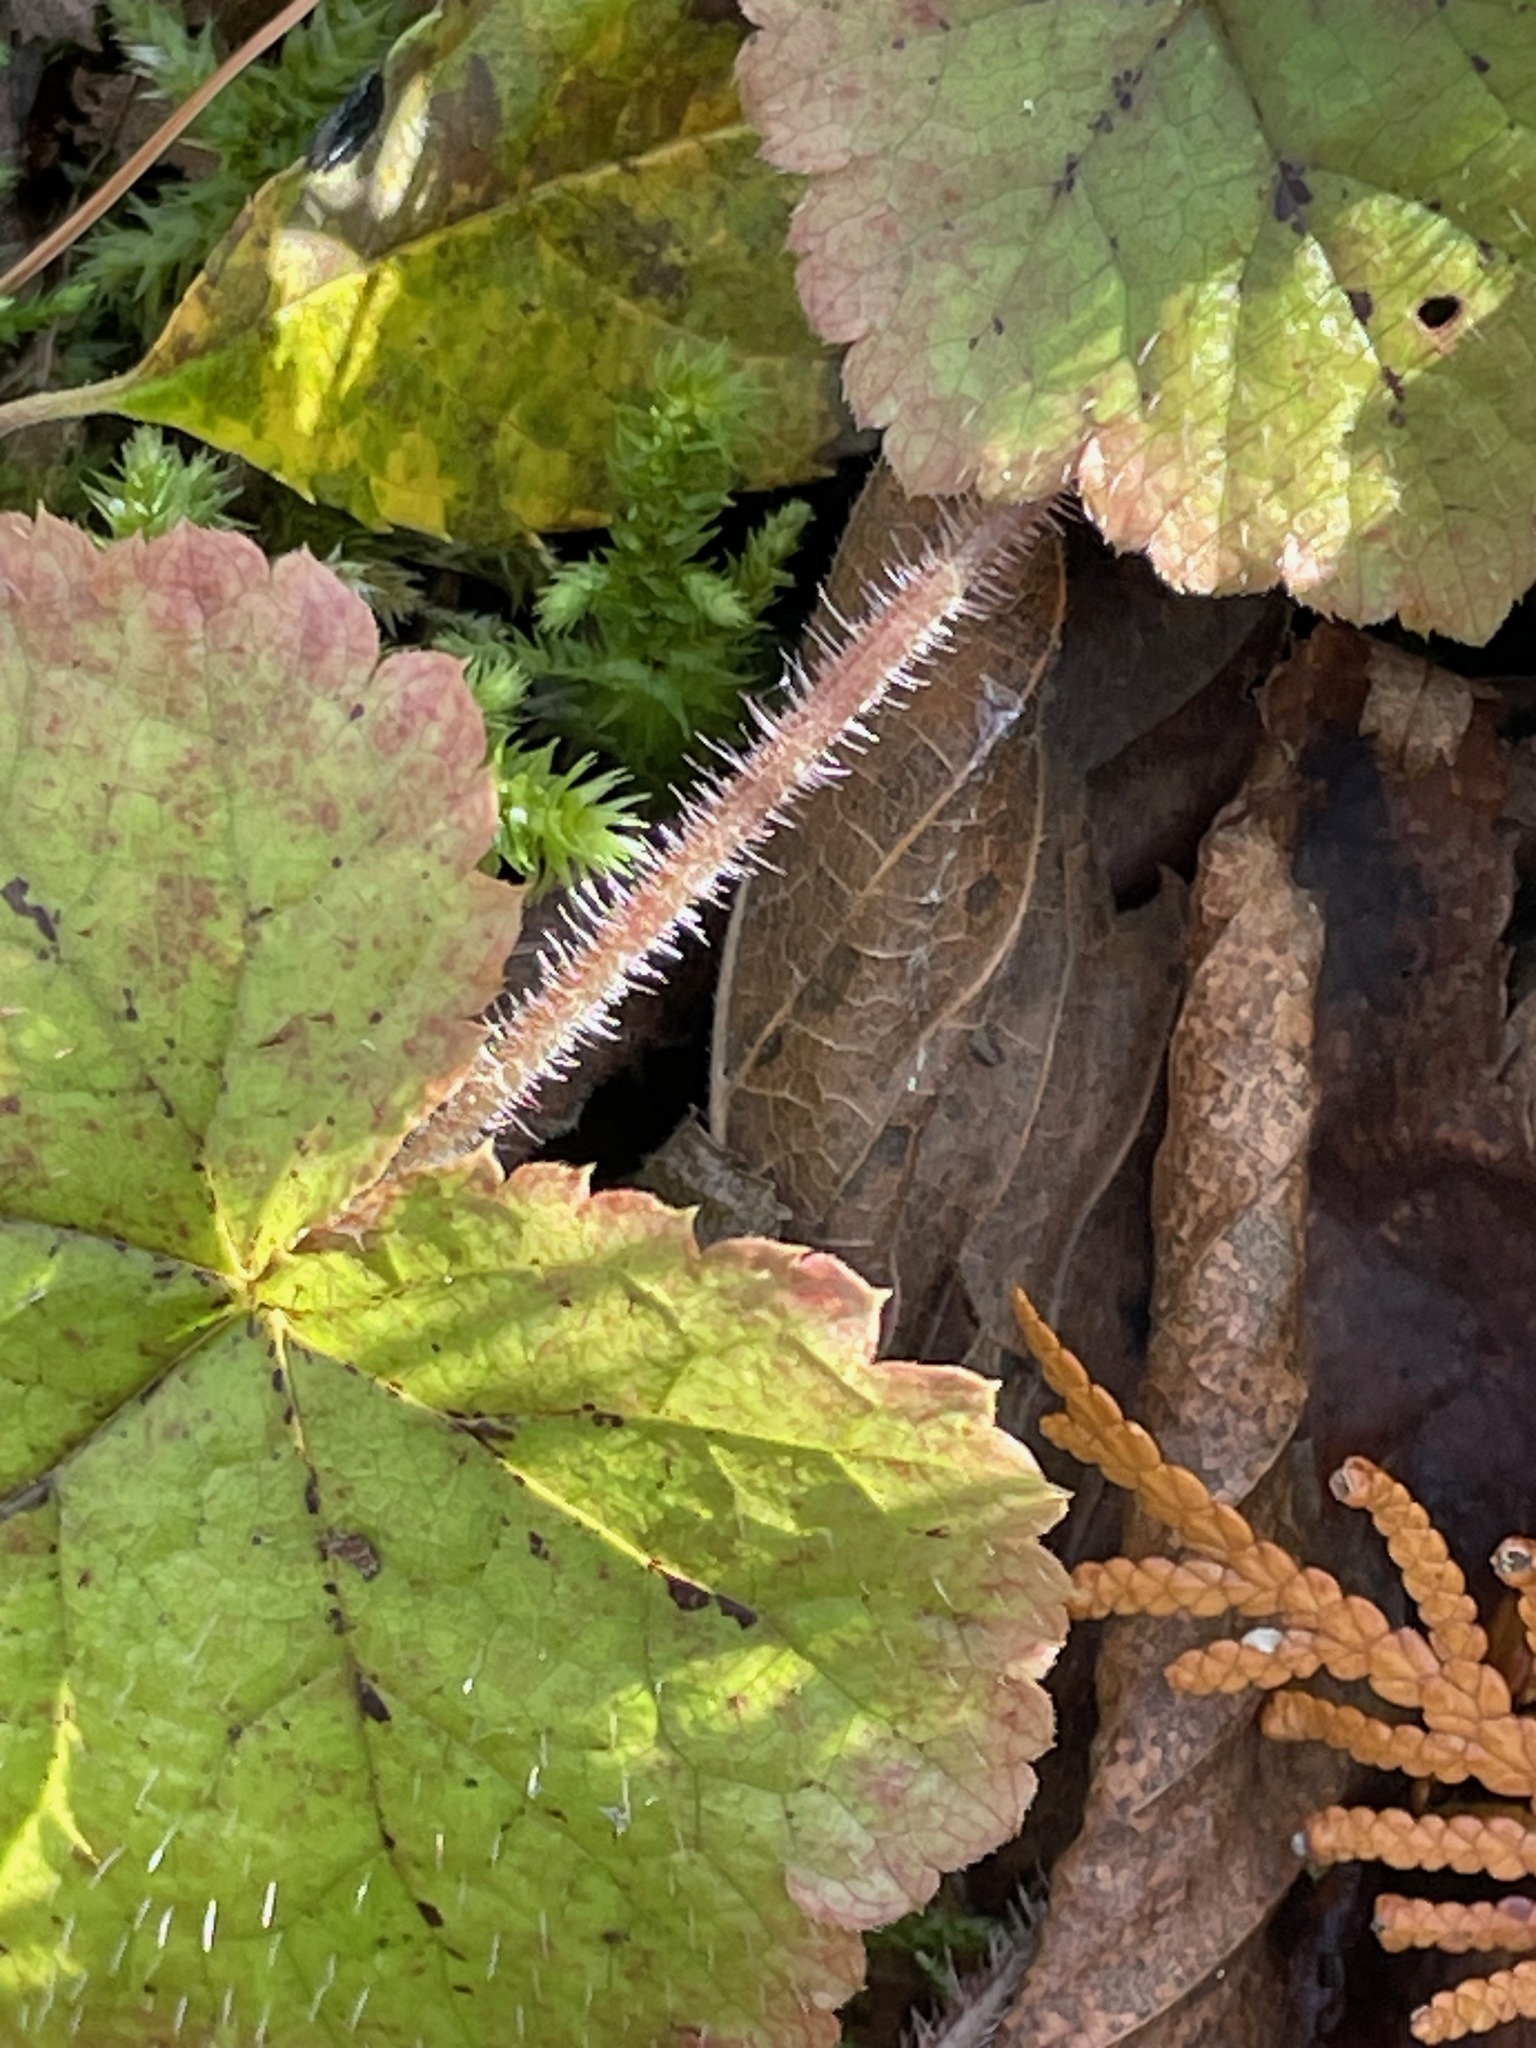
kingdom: Plantae
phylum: Tracheophyta
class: Magnoliopsida
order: Saxifragales
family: Saxifragaceae
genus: Tiarella
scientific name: Tiarella stolonifera
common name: Stoloniferous foamflower
